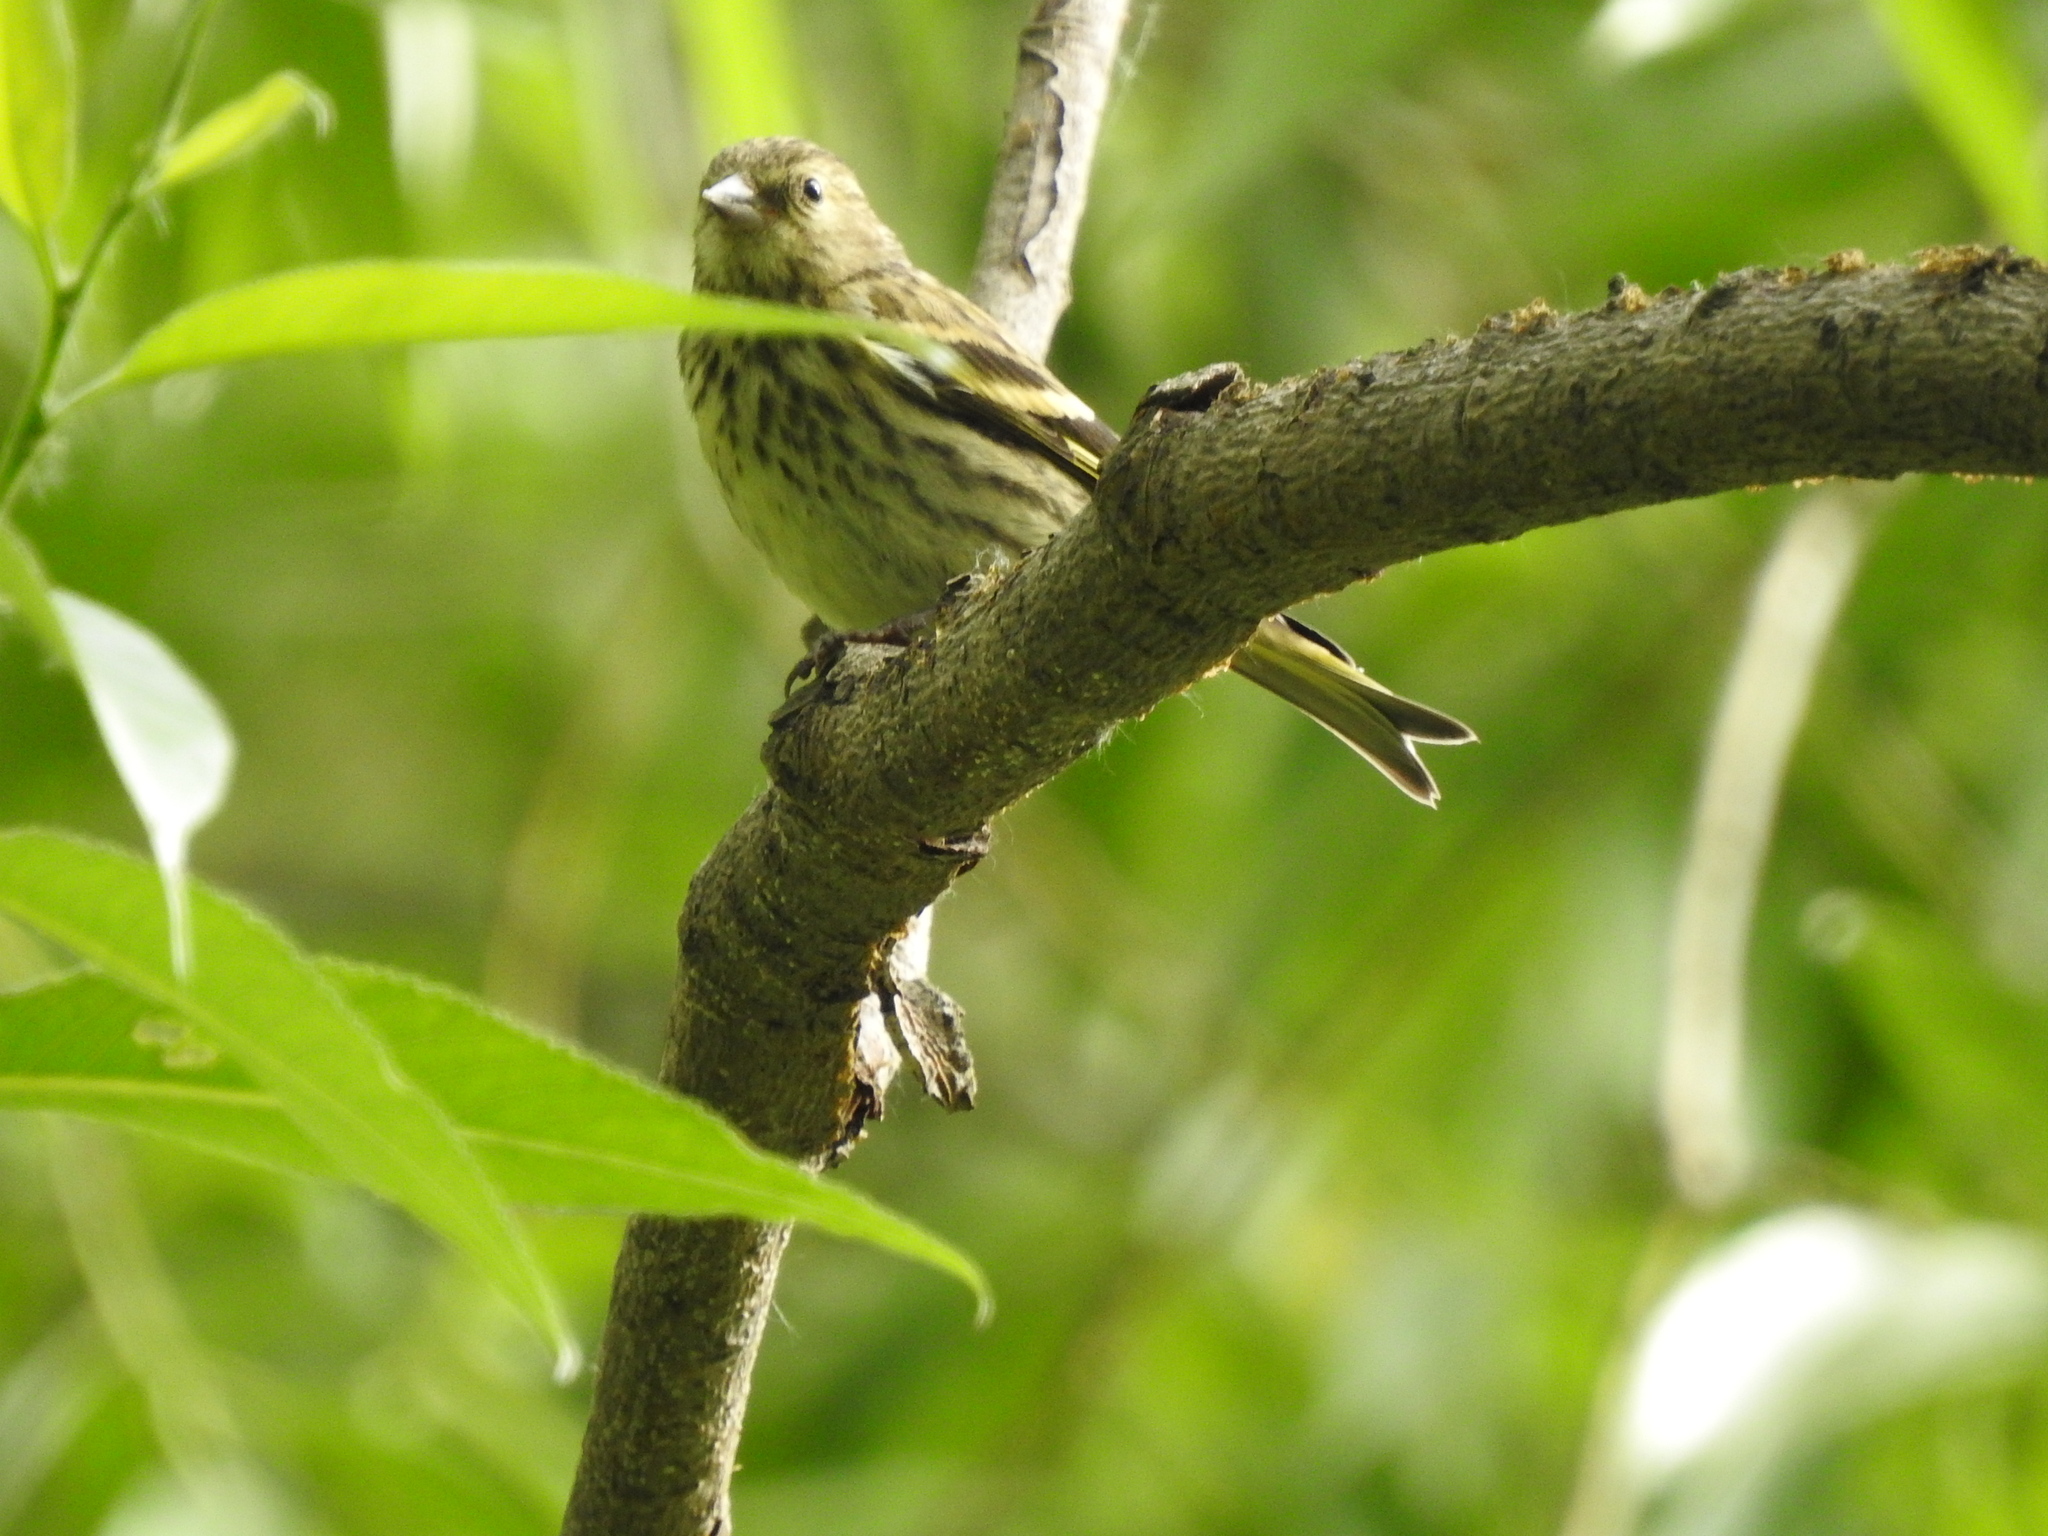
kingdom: Animalia
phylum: Chordata
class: Aves
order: Passeriformes
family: Fringillidae
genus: Spinus
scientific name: Spinus spinus
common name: Eurasian siskin
